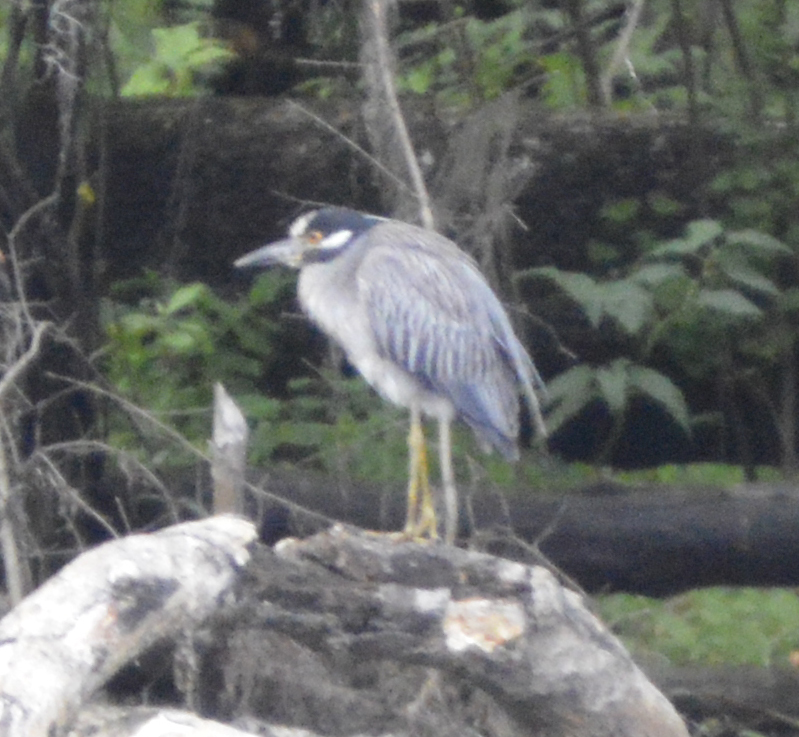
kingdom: Animalia
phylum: Chordata
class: Aves
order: Pelecaniformes
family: Ardeidae
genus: Nyctanassa
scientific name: Nyctanassa violacea
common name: Yellow-crowned night heron
